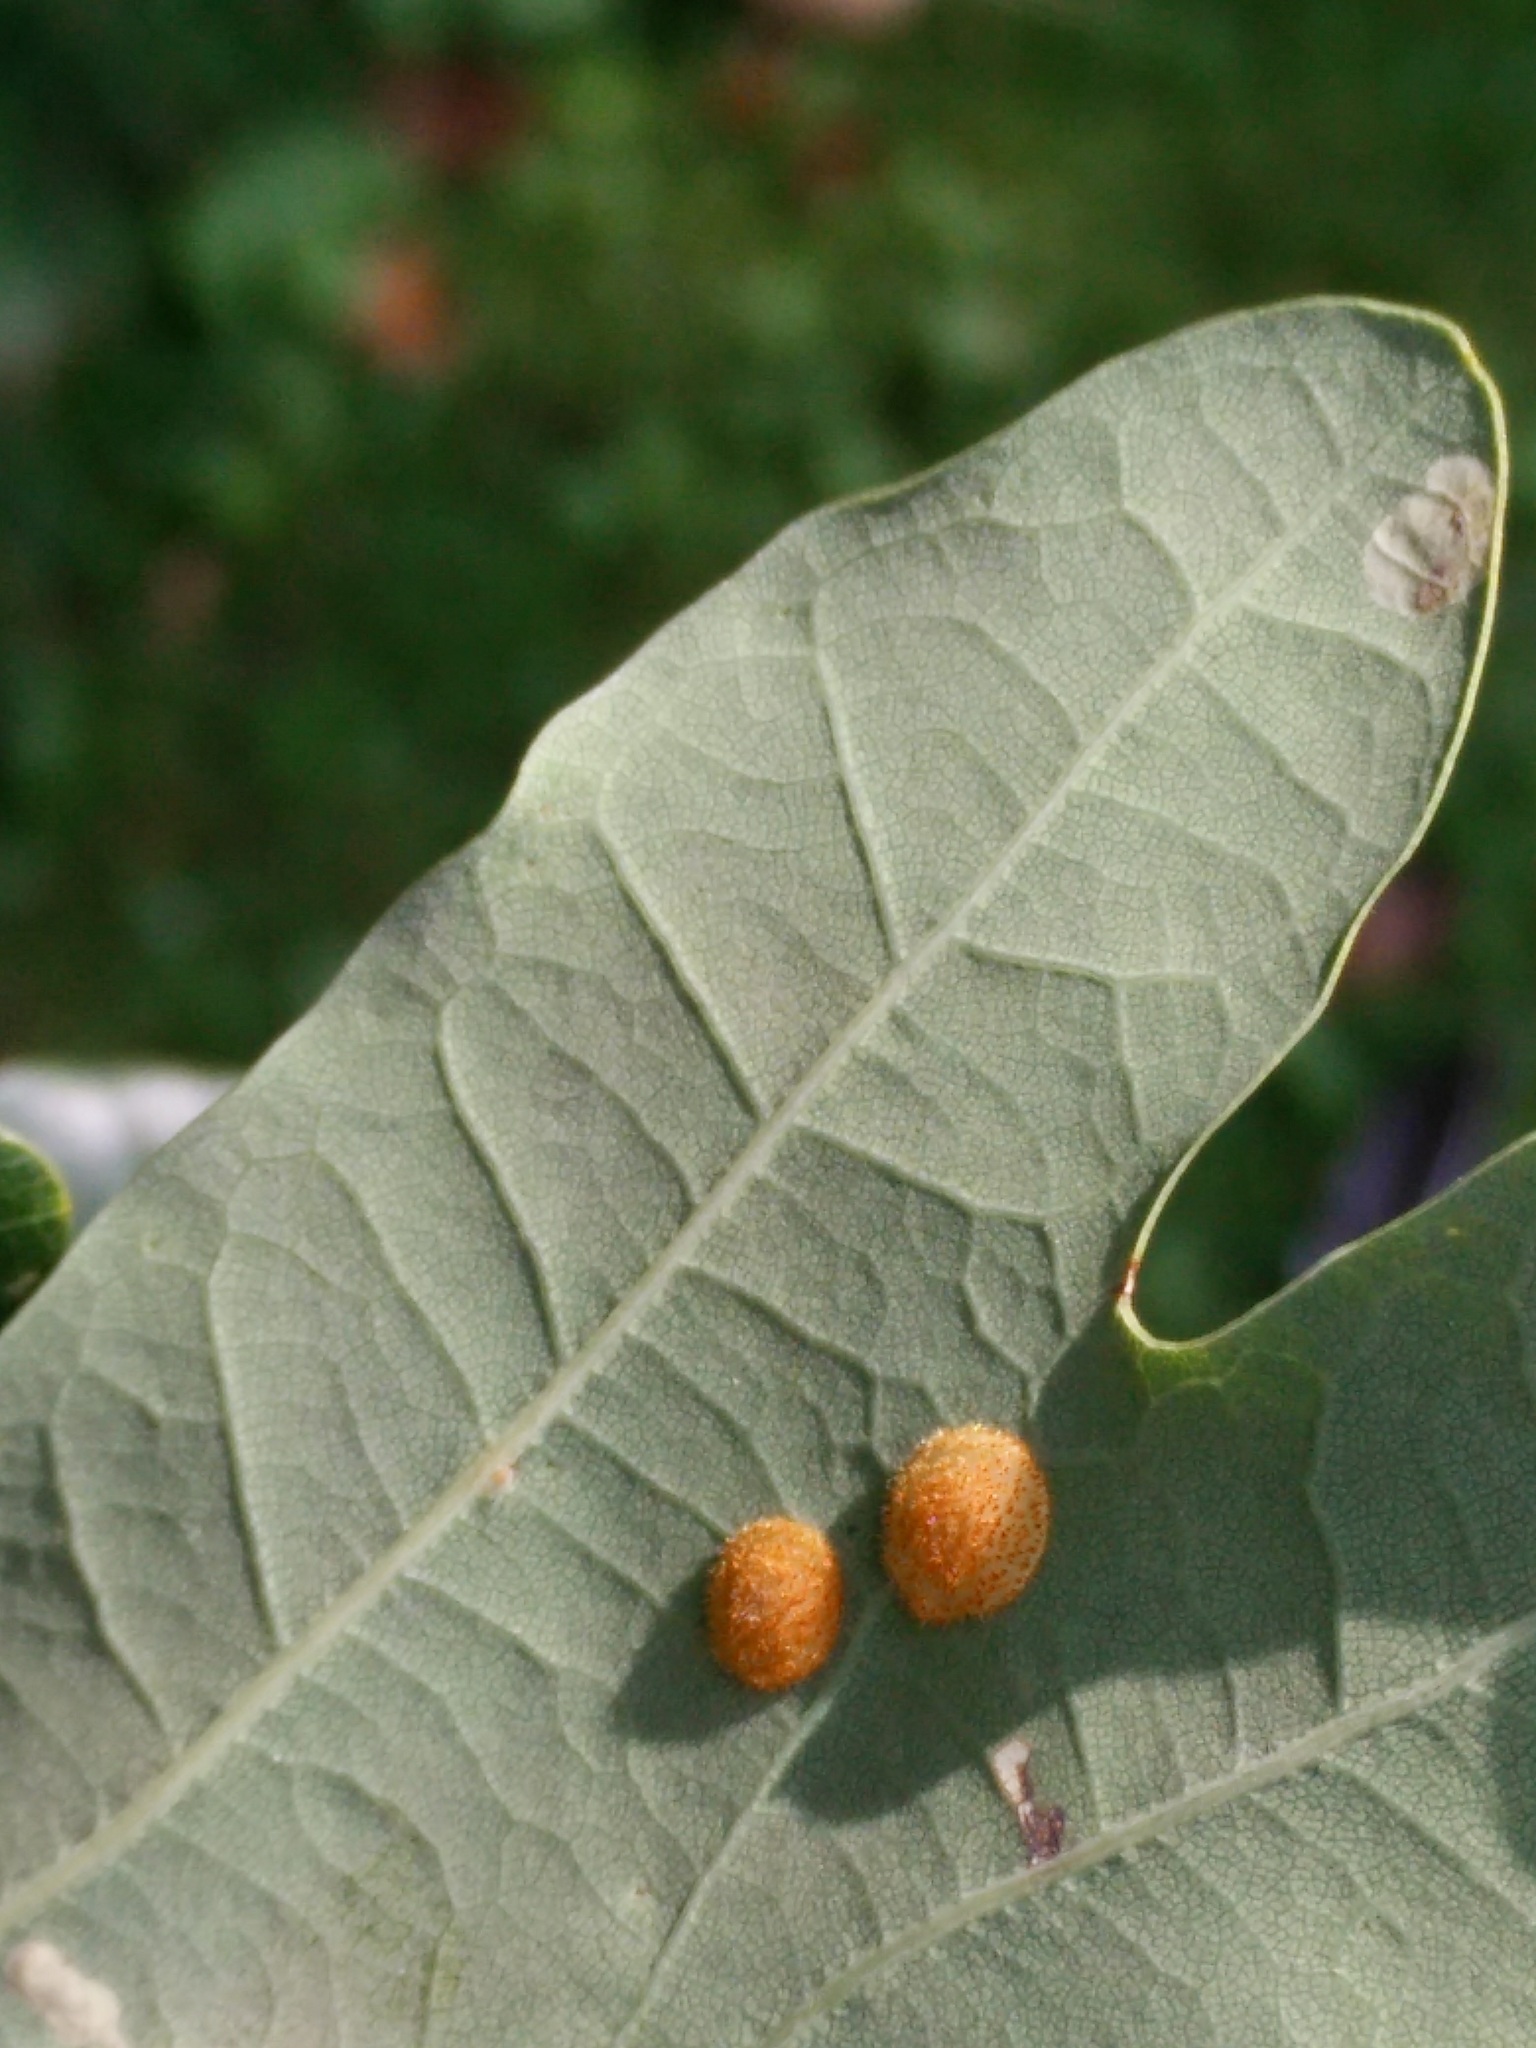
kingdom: Animalia
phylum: Arthropoda
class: Insecta
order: Hymenoptera
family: Cynipidae
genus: Neuroterus
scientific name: Neuroterus quercusbaccarum
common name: Common spangle gall
